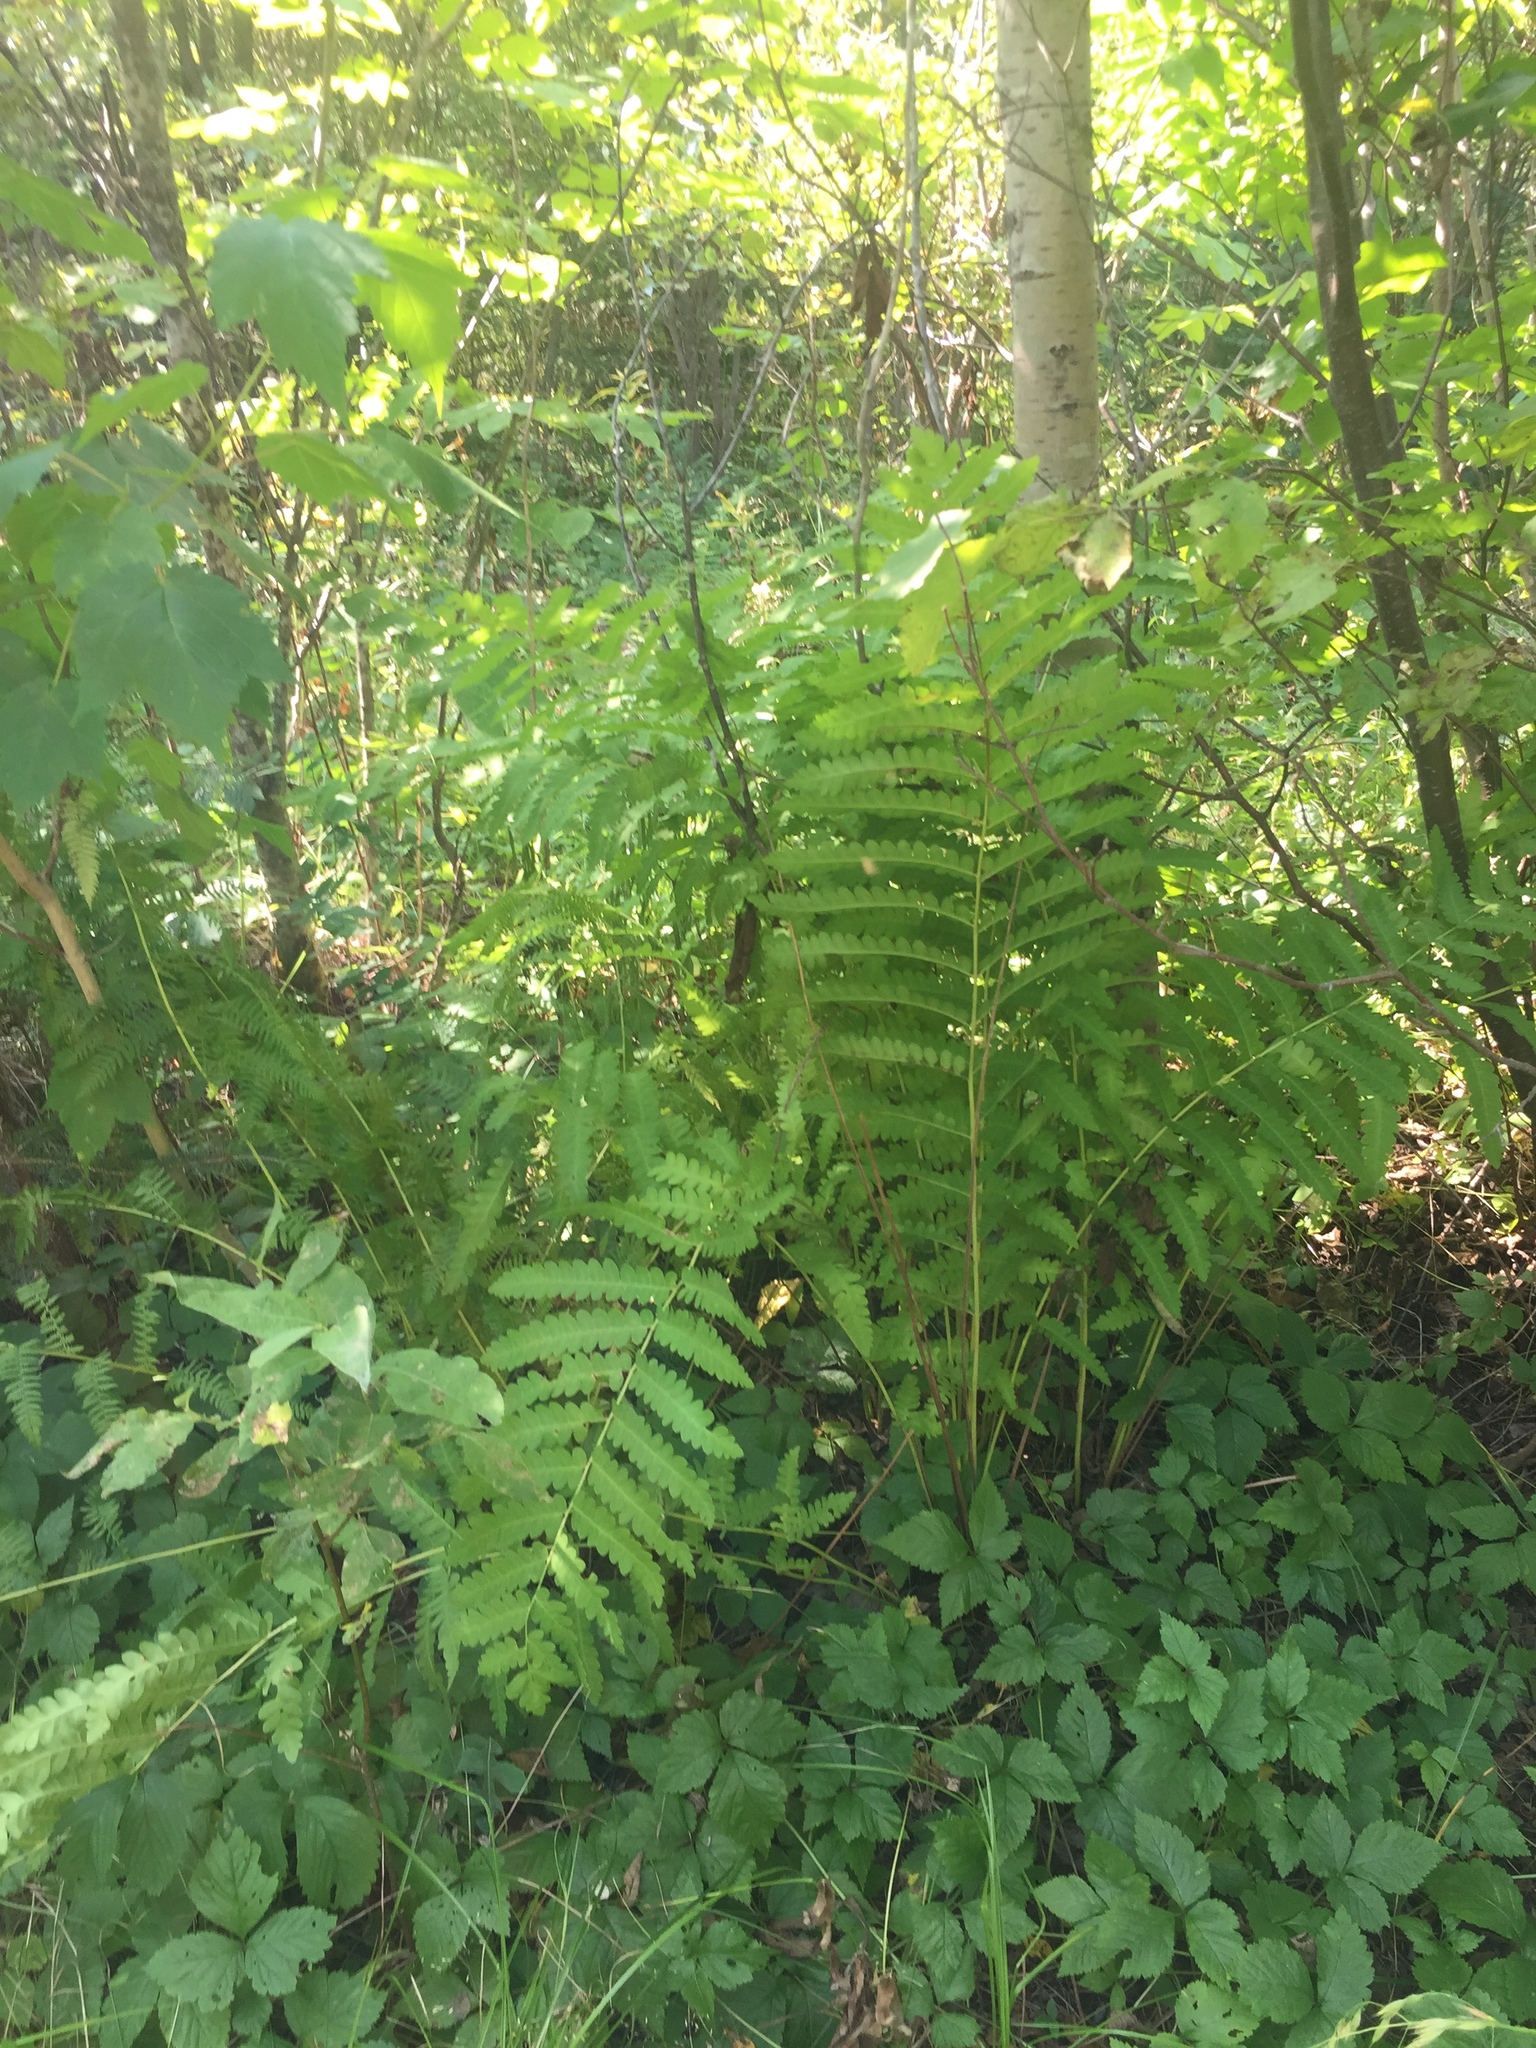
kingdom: Plantae
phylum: Tracheophyta
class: Polypodiopsida
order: Osmundales
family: Osmundaceae
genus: Claytosmunda
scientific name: Claytosmunda claytoniana
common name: Clayton's fern
